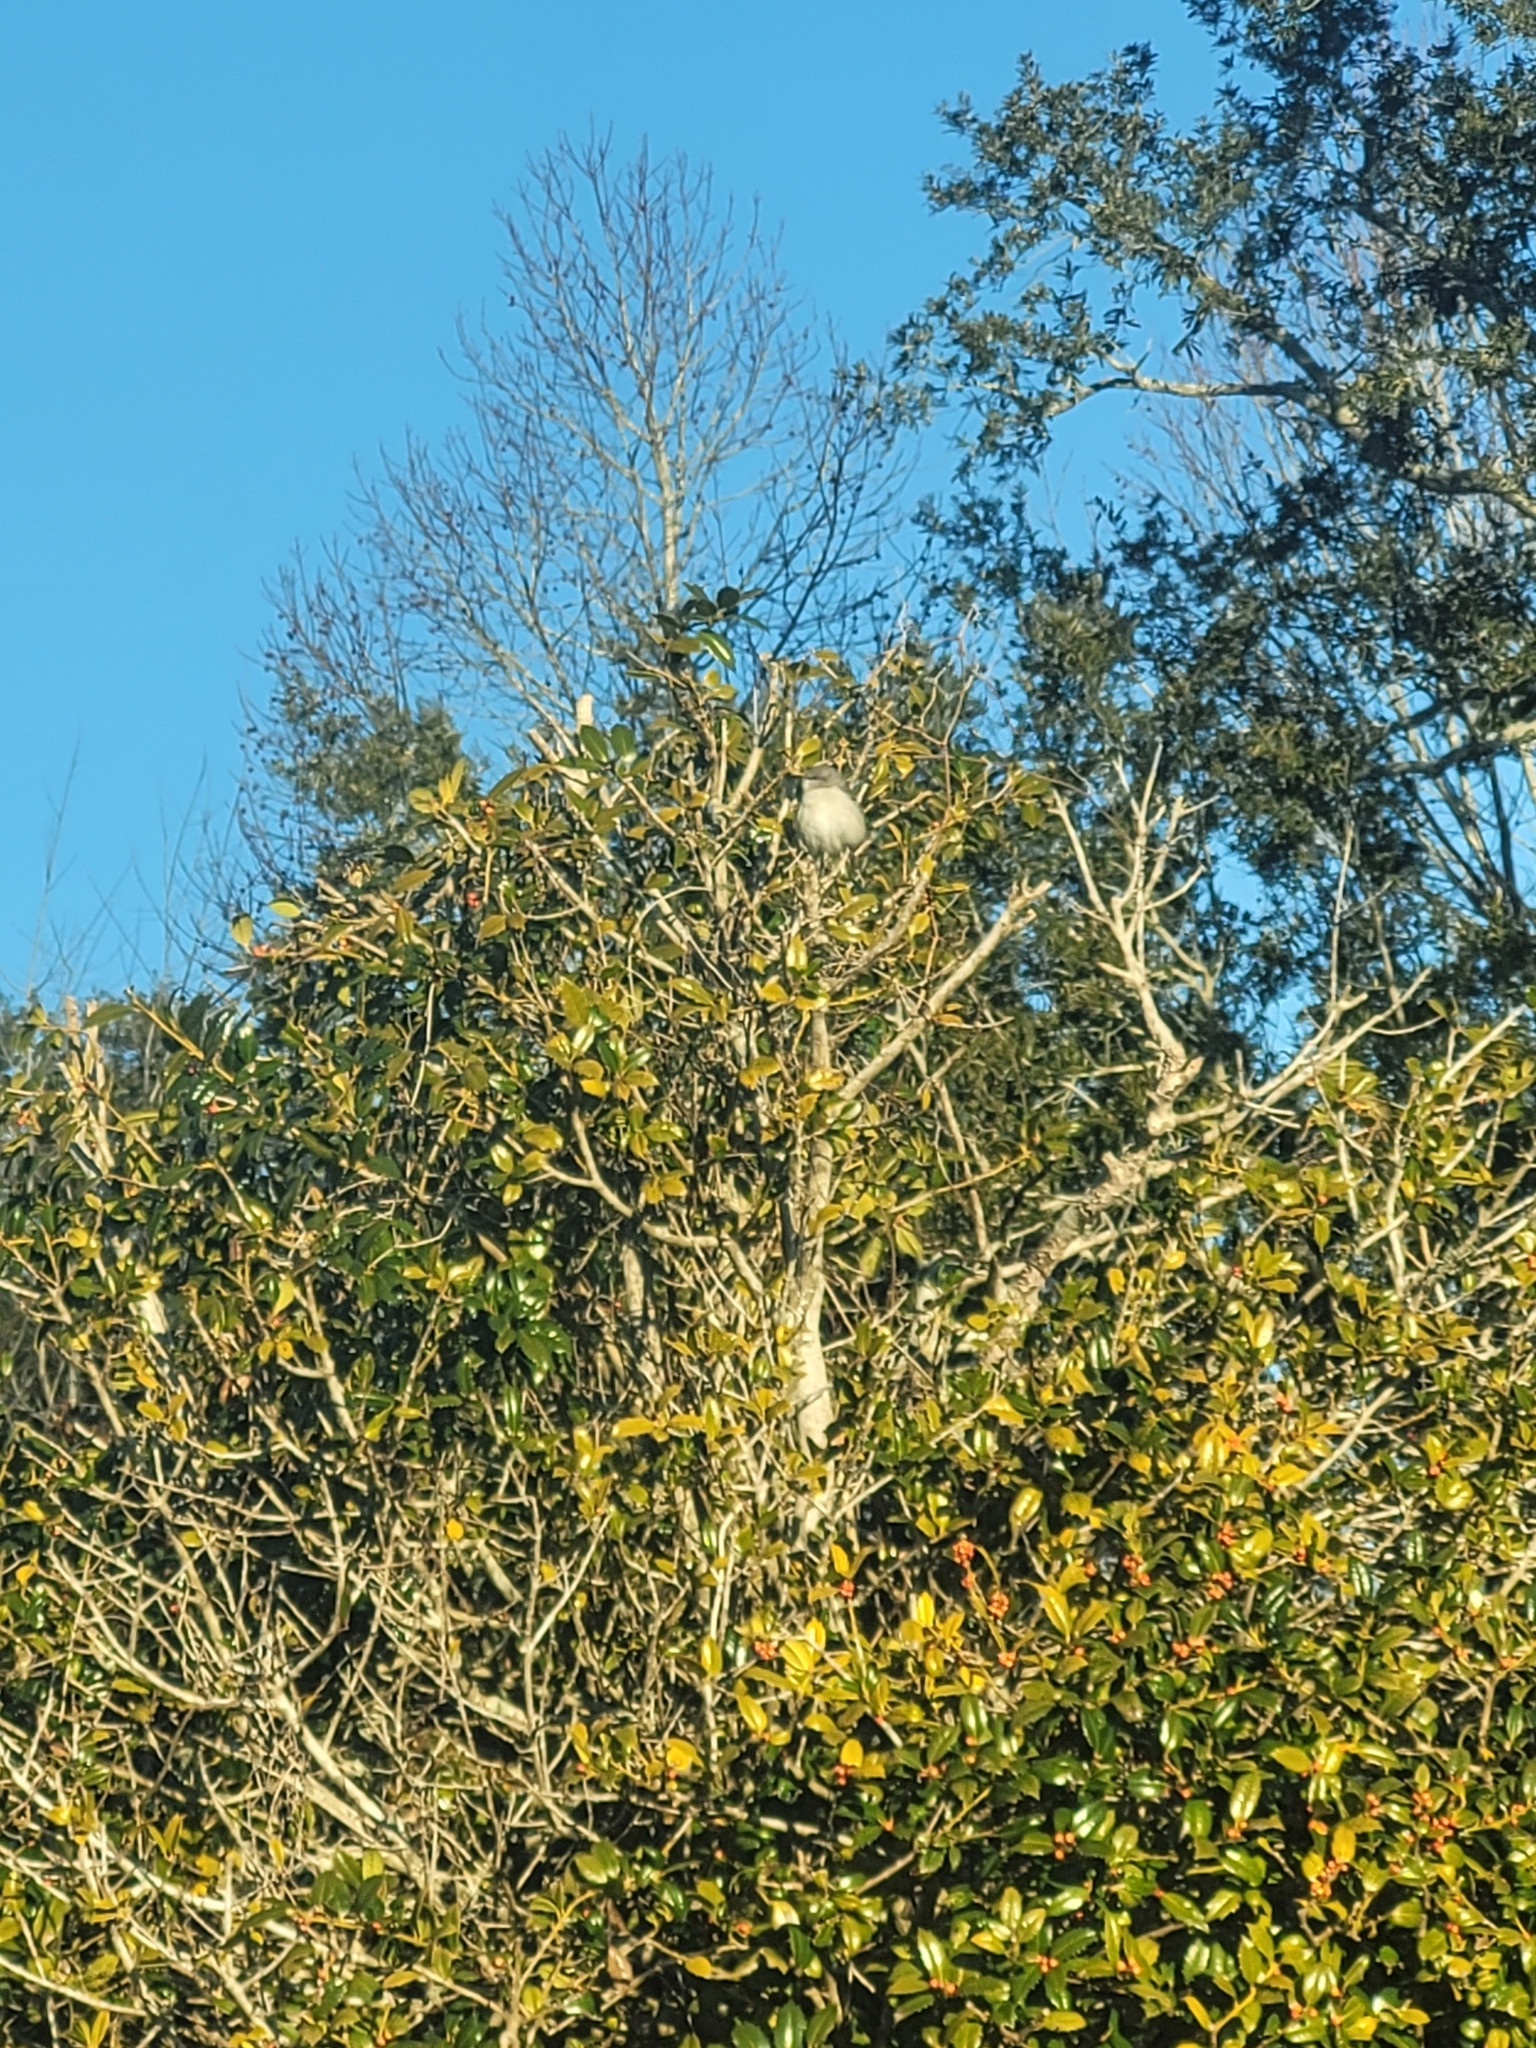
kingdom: Animalia
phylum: Chordata
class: Aves
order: Passeriformes
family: Mimidae
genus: Mimus
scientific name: Mimus polyglottos
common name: Northern mockingbird
